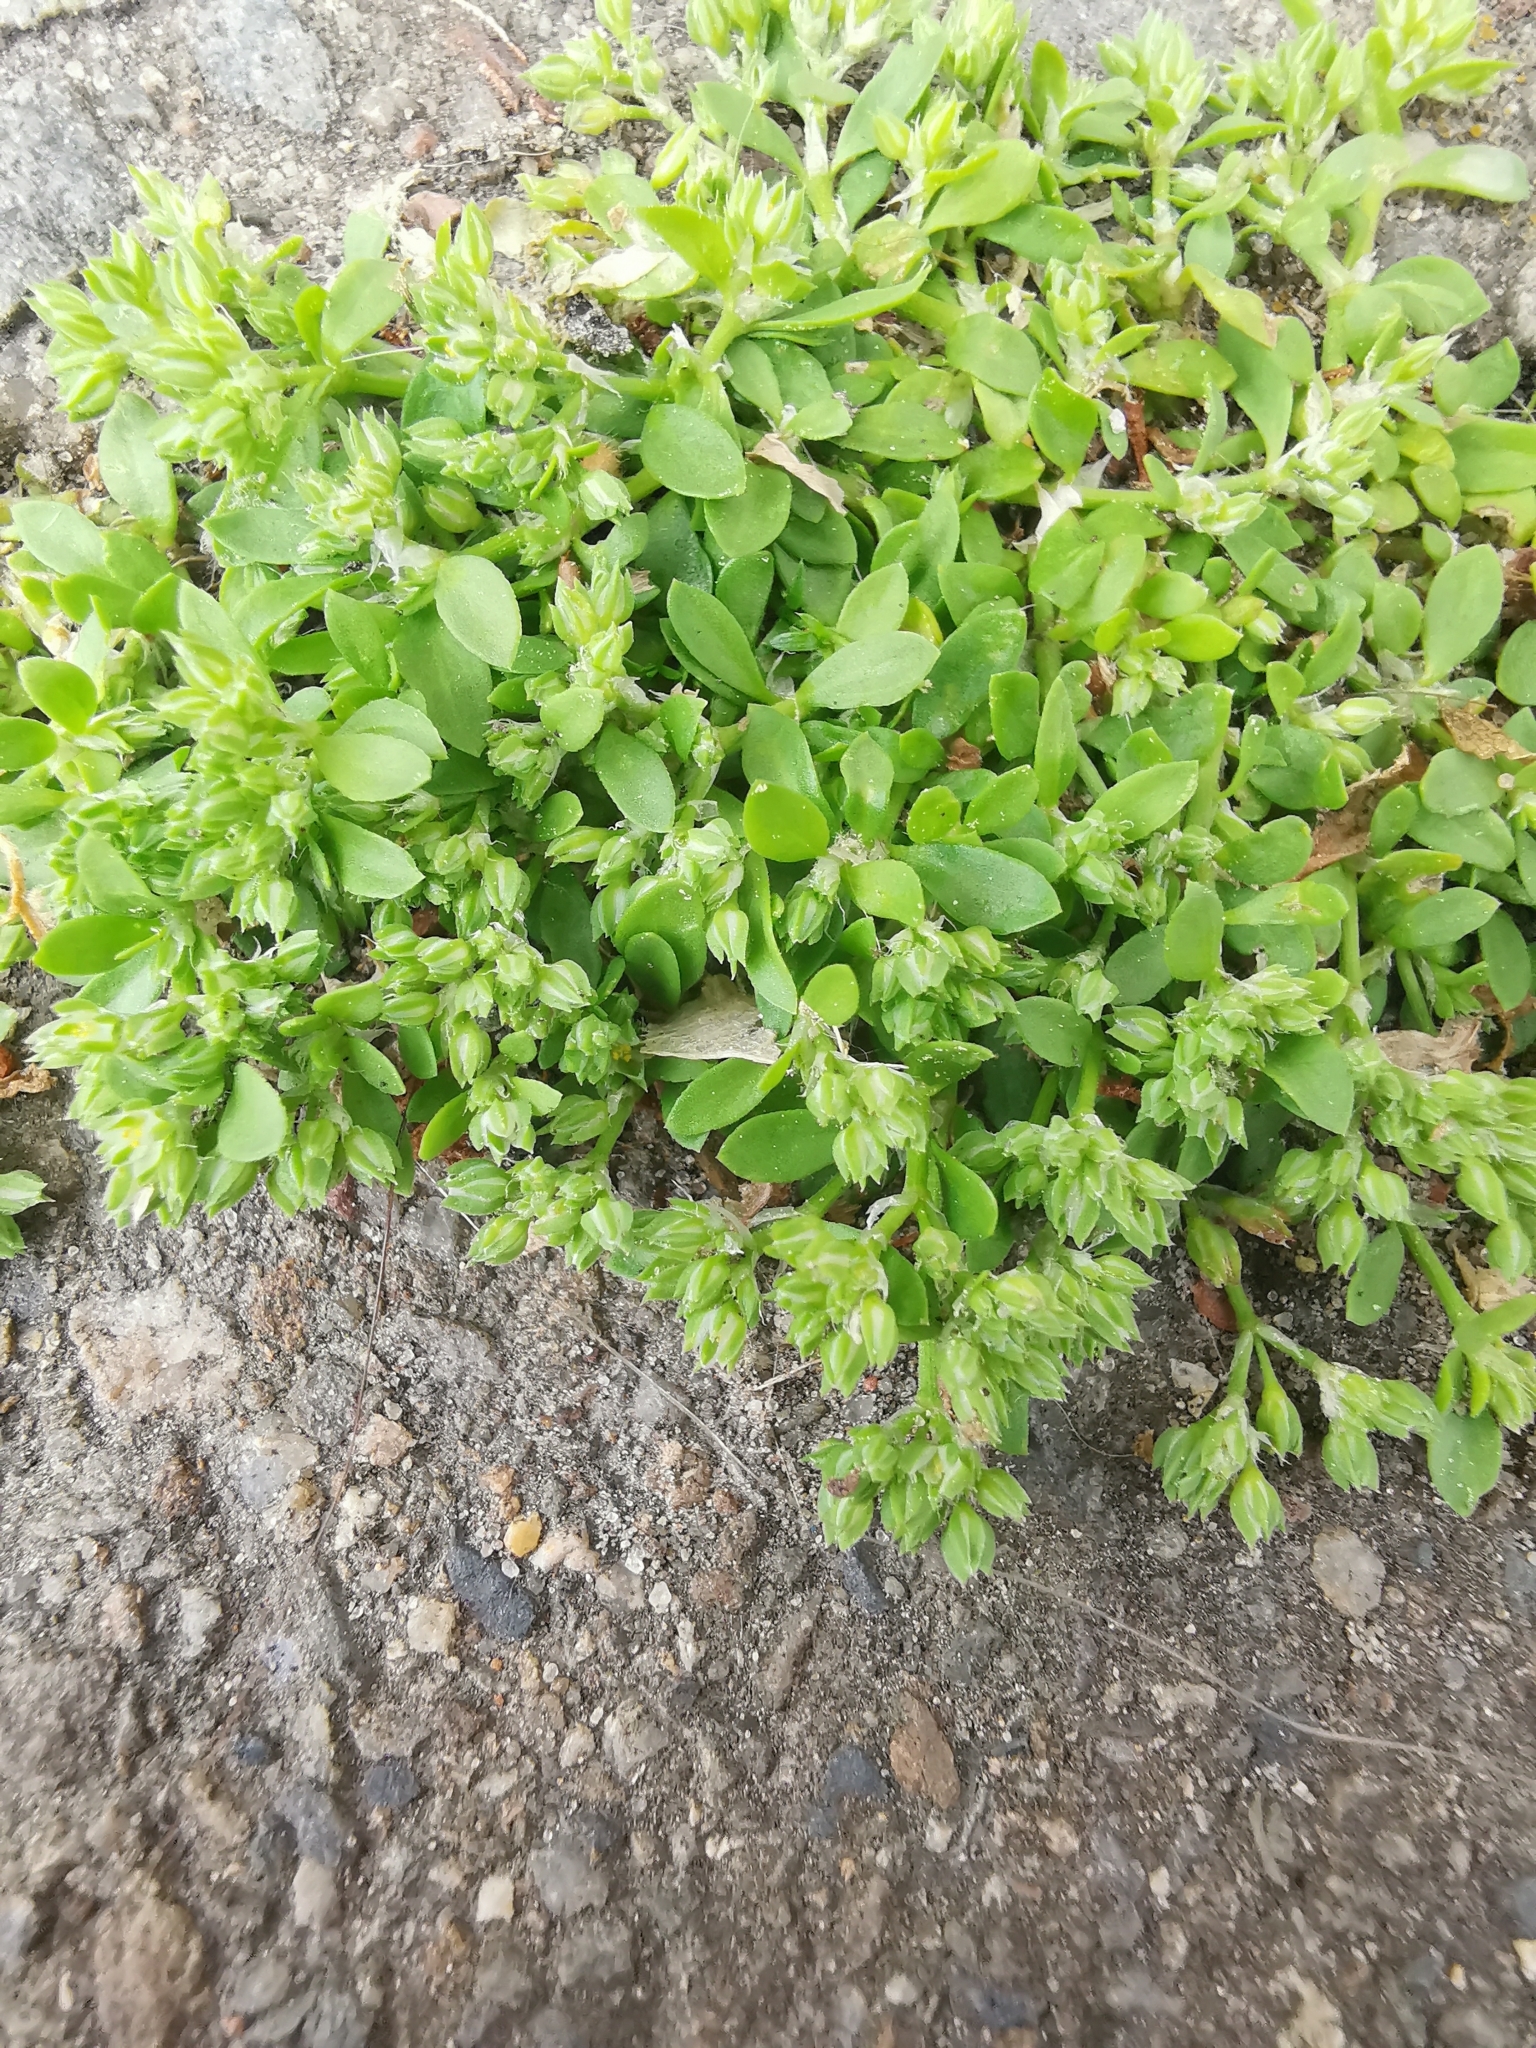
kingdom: Plantae
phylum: Tracheophyta
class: Magnoliopsida
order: Caryophyllales
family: Caryophyllaceae
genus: Polycarpon
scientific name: Polycarpon tetraphyllum
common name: Four-leaved all-seed
